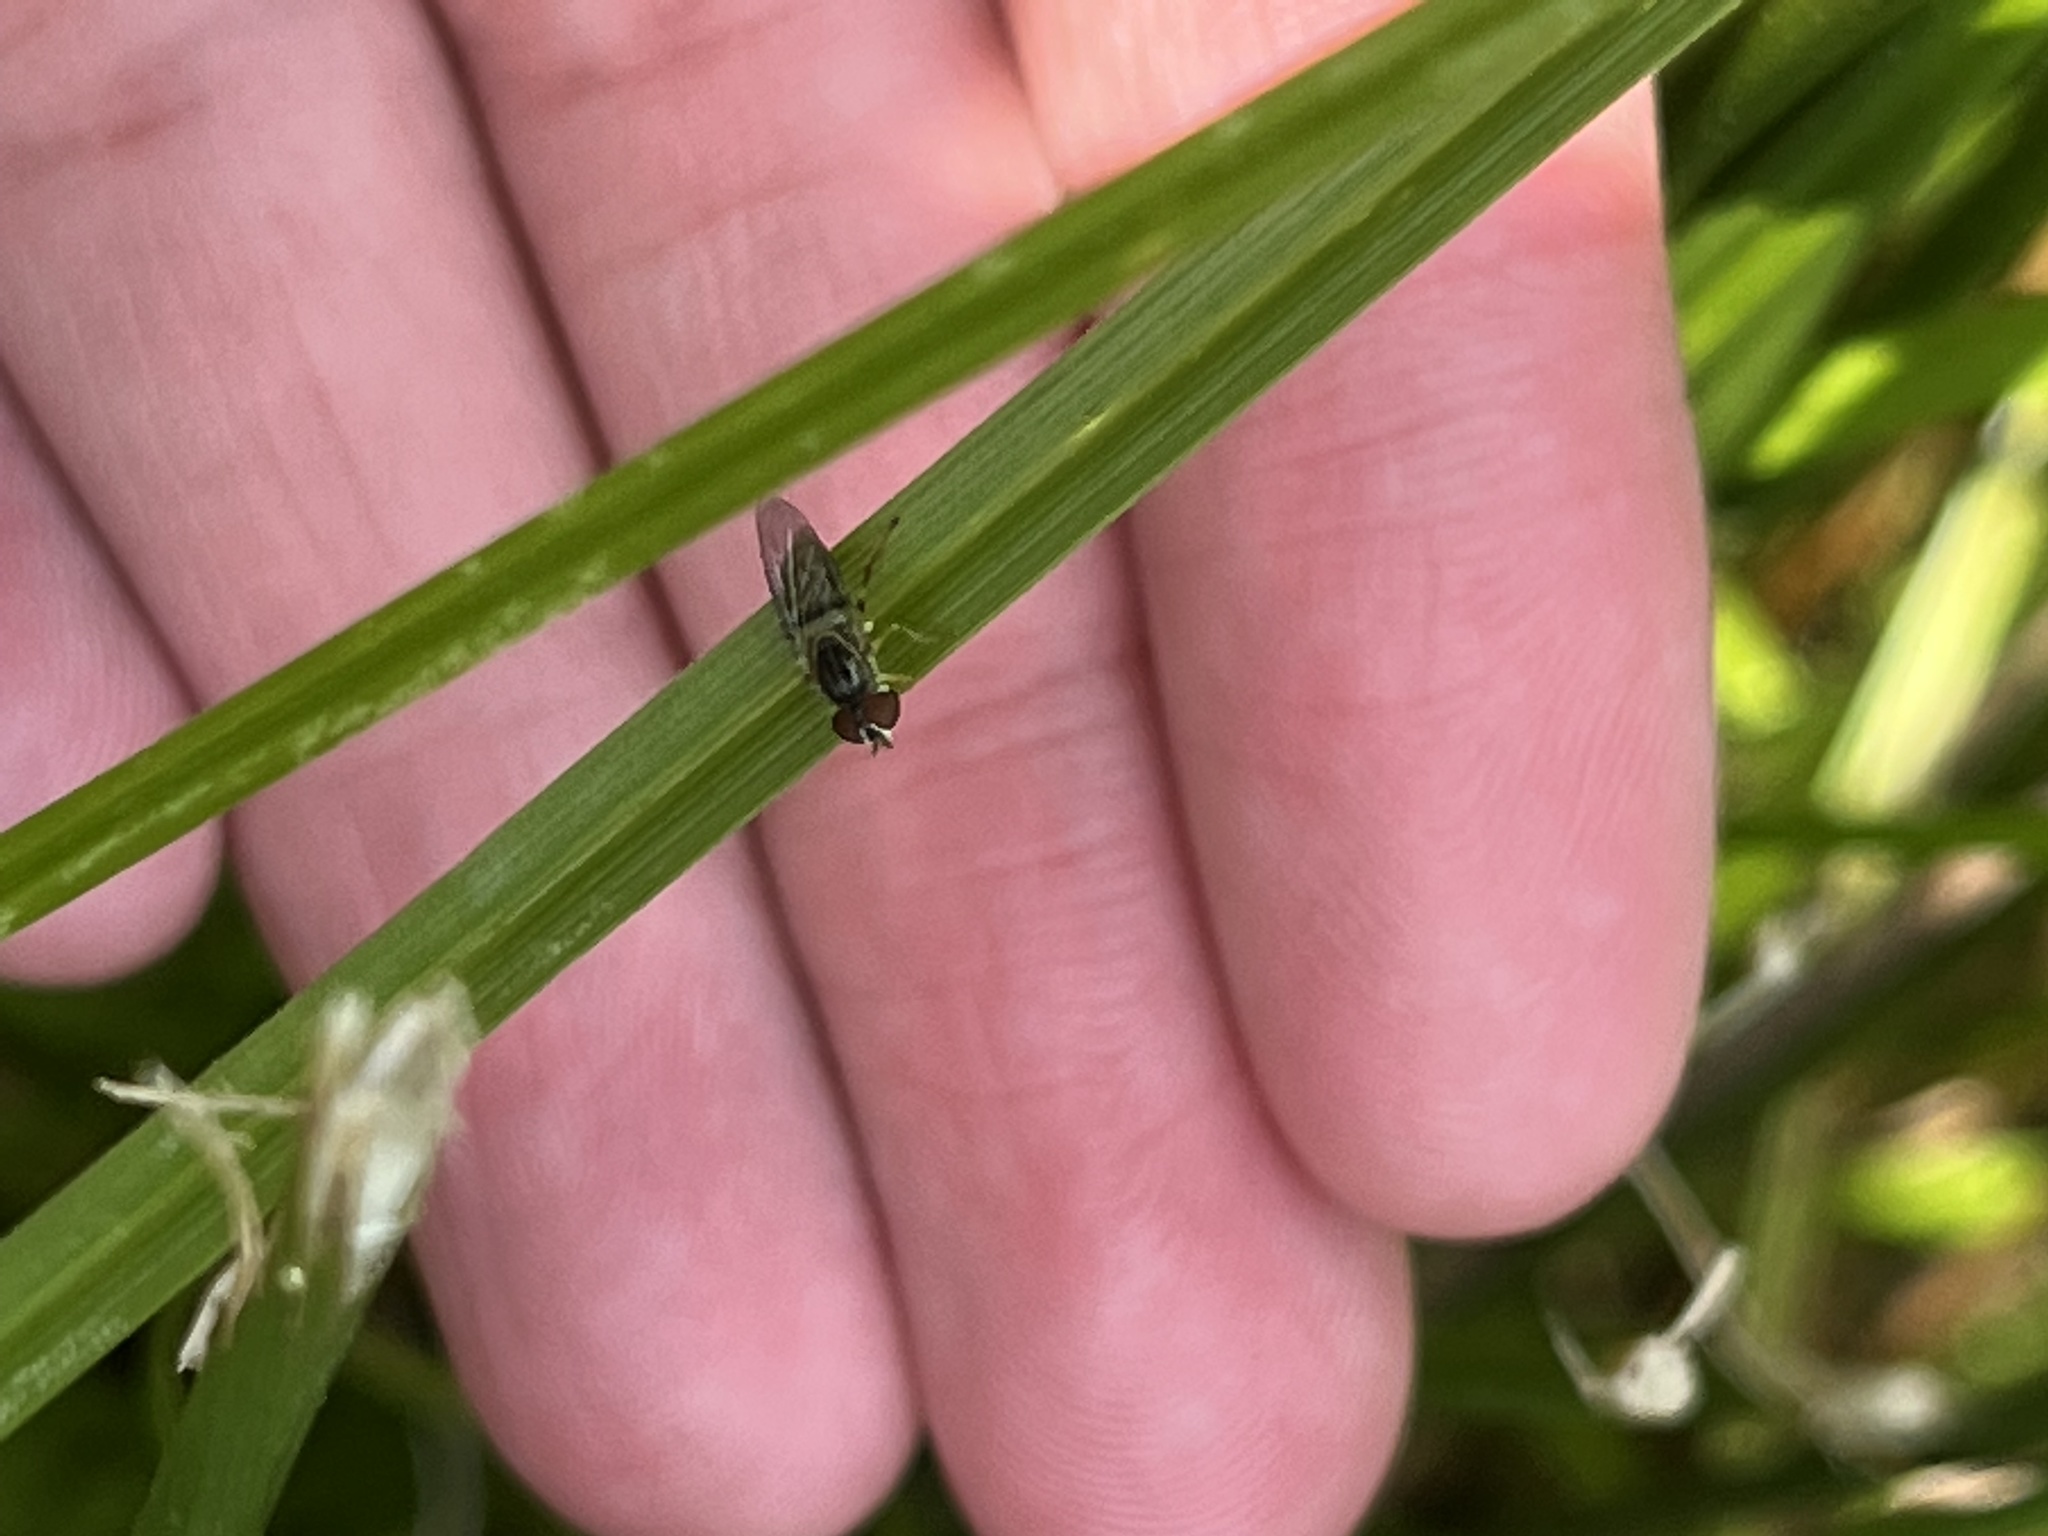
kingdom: Animalia
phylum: Arthropoda
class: Insecta
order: Diptera
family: Syrphidae
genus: Toxomerus
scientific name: Toxomerus
